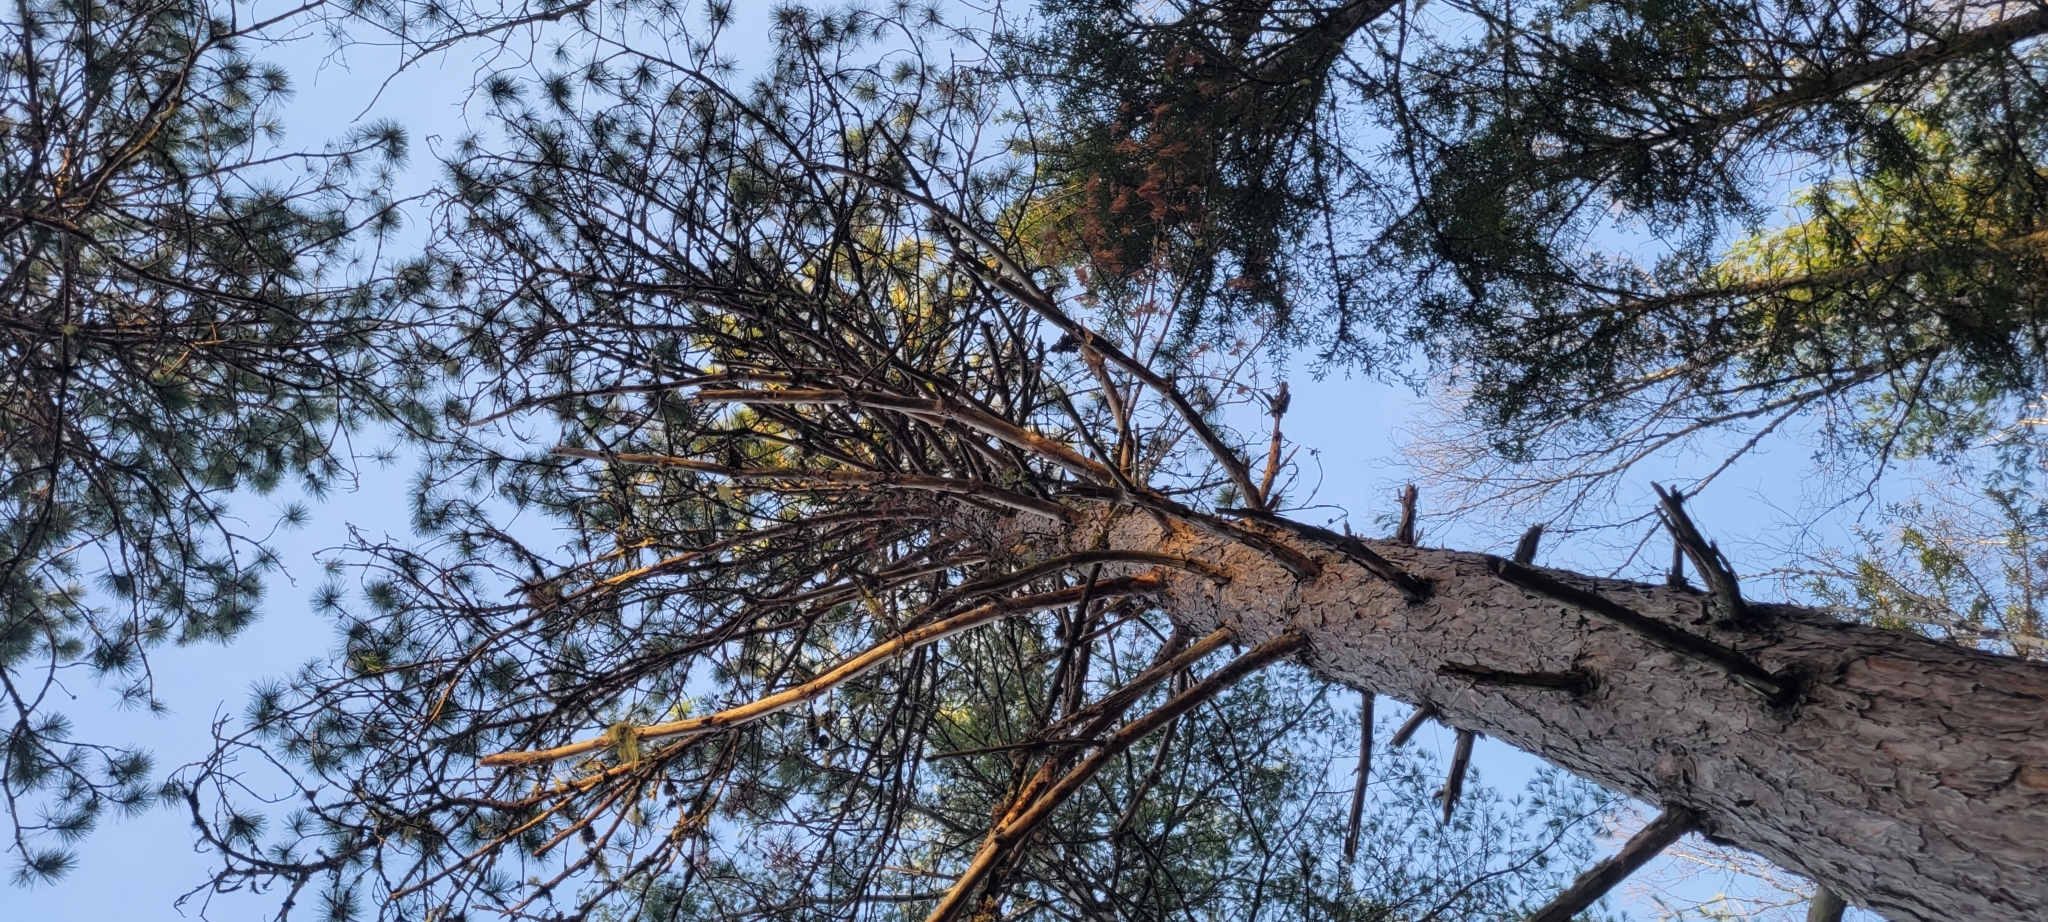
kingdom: Plantae
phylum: Tracheophyta
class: Pinopsida
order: Pinales
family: Pinaceae
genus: Pinus
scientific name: Pinus resinosa
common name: Norway pine
